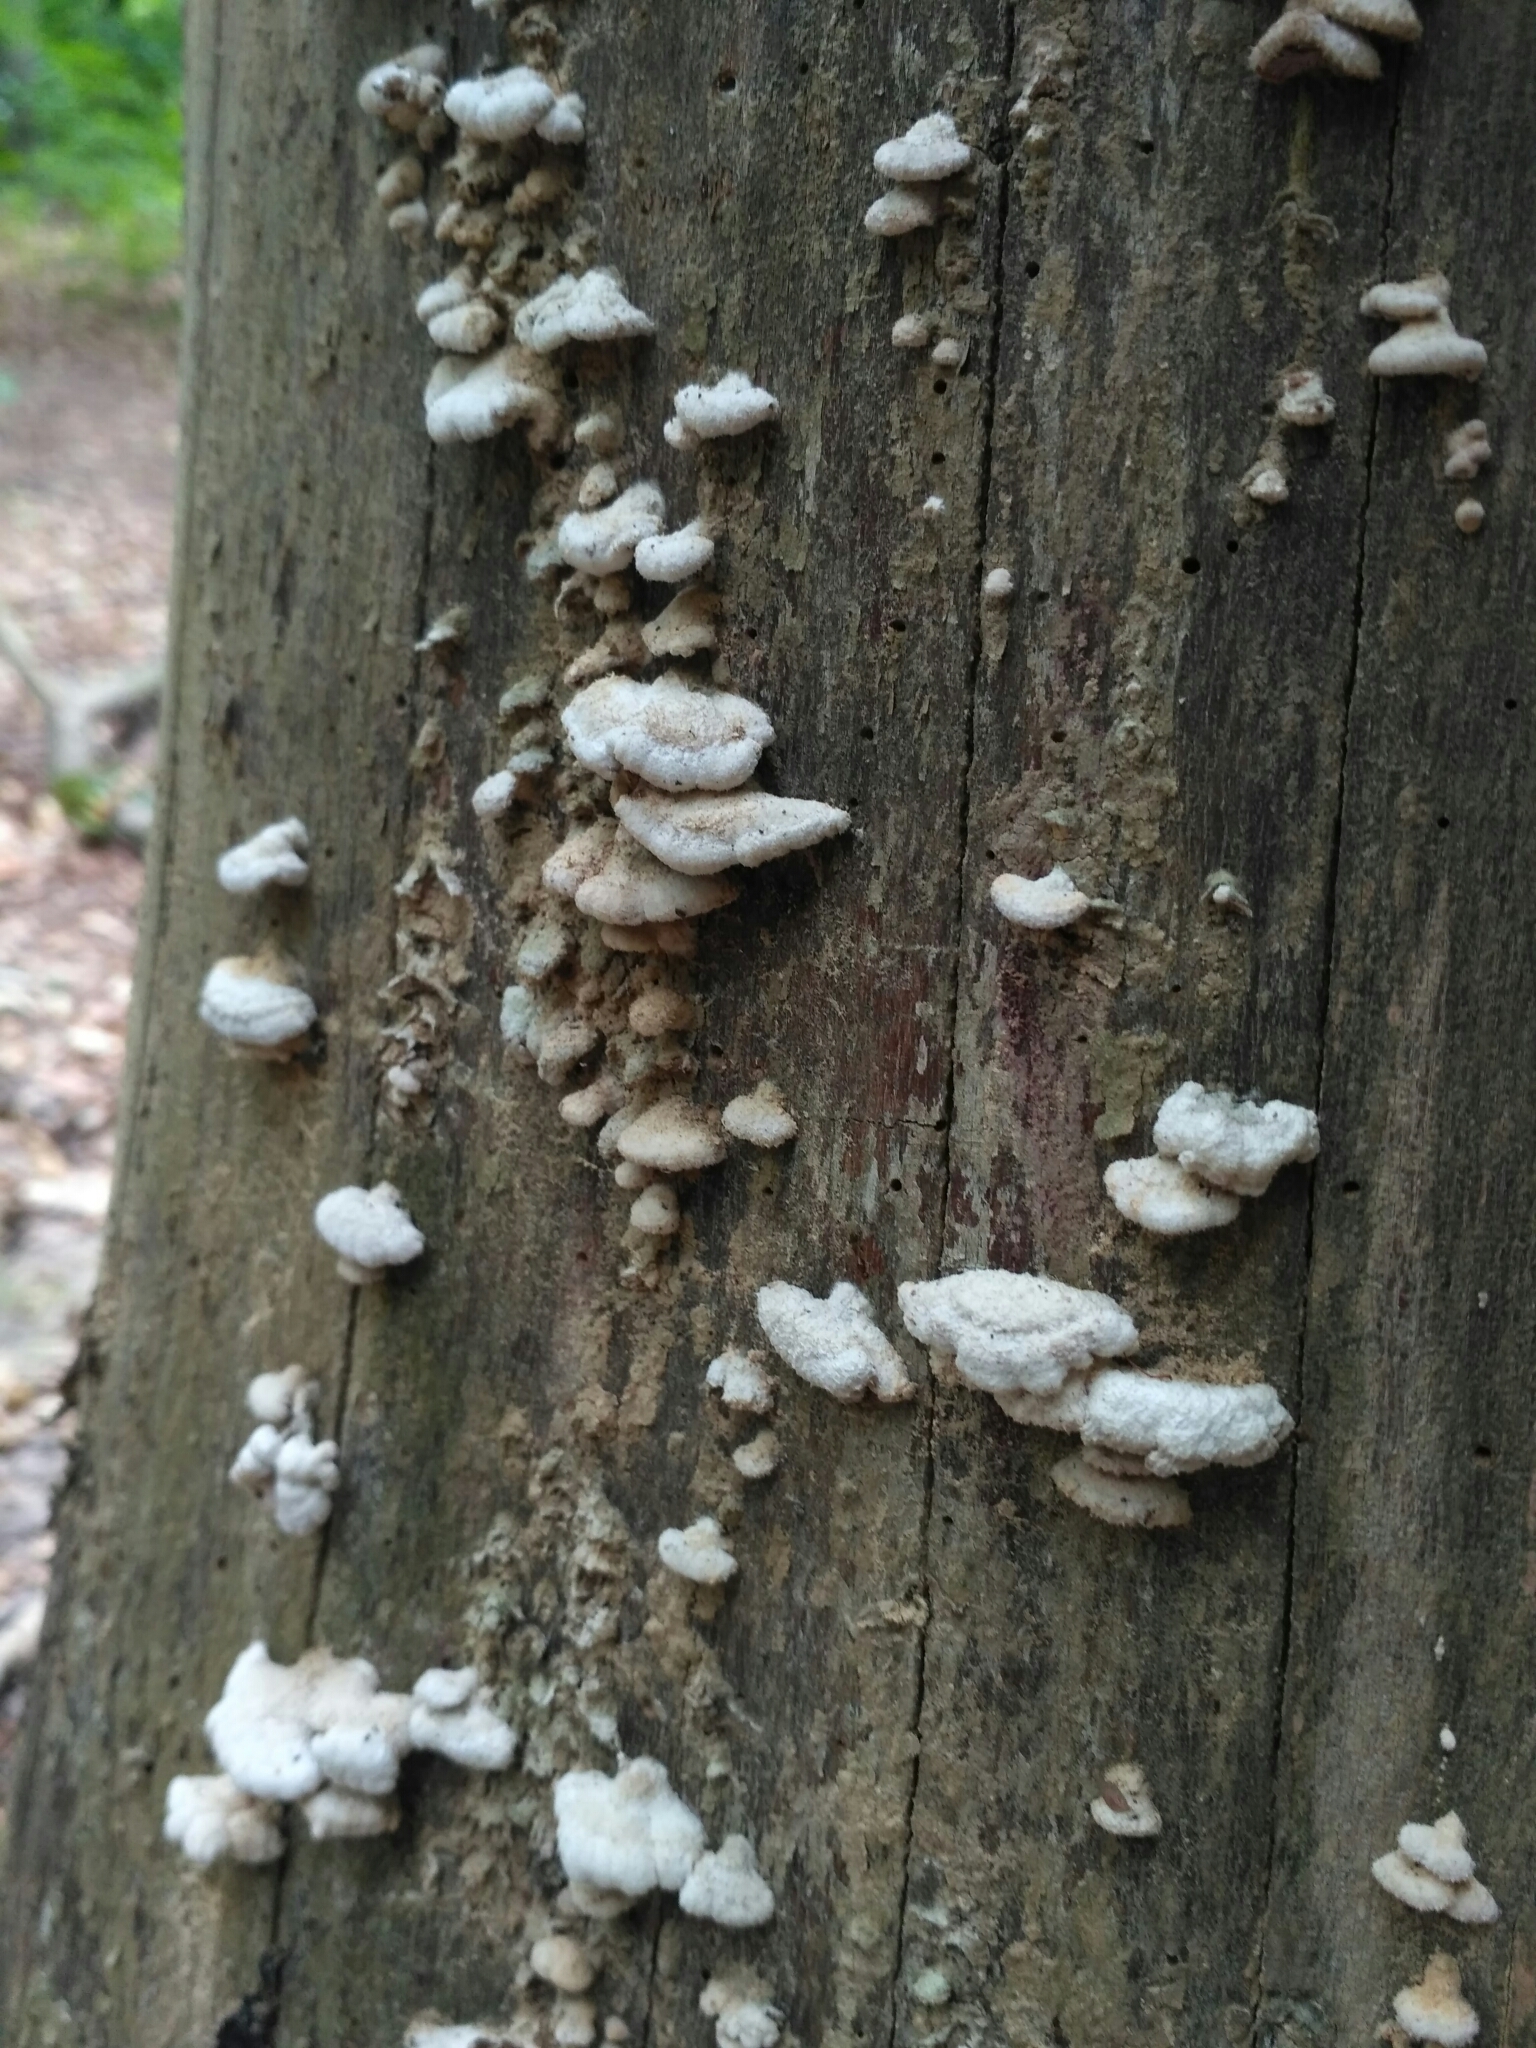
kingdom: Fungi
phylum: Basidiomycota
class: Agaricomycetes
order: Agaricales
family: Schizophyllaceae
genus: Schizophyllum
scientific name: Schizophyllum commune
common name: Common porecrust
